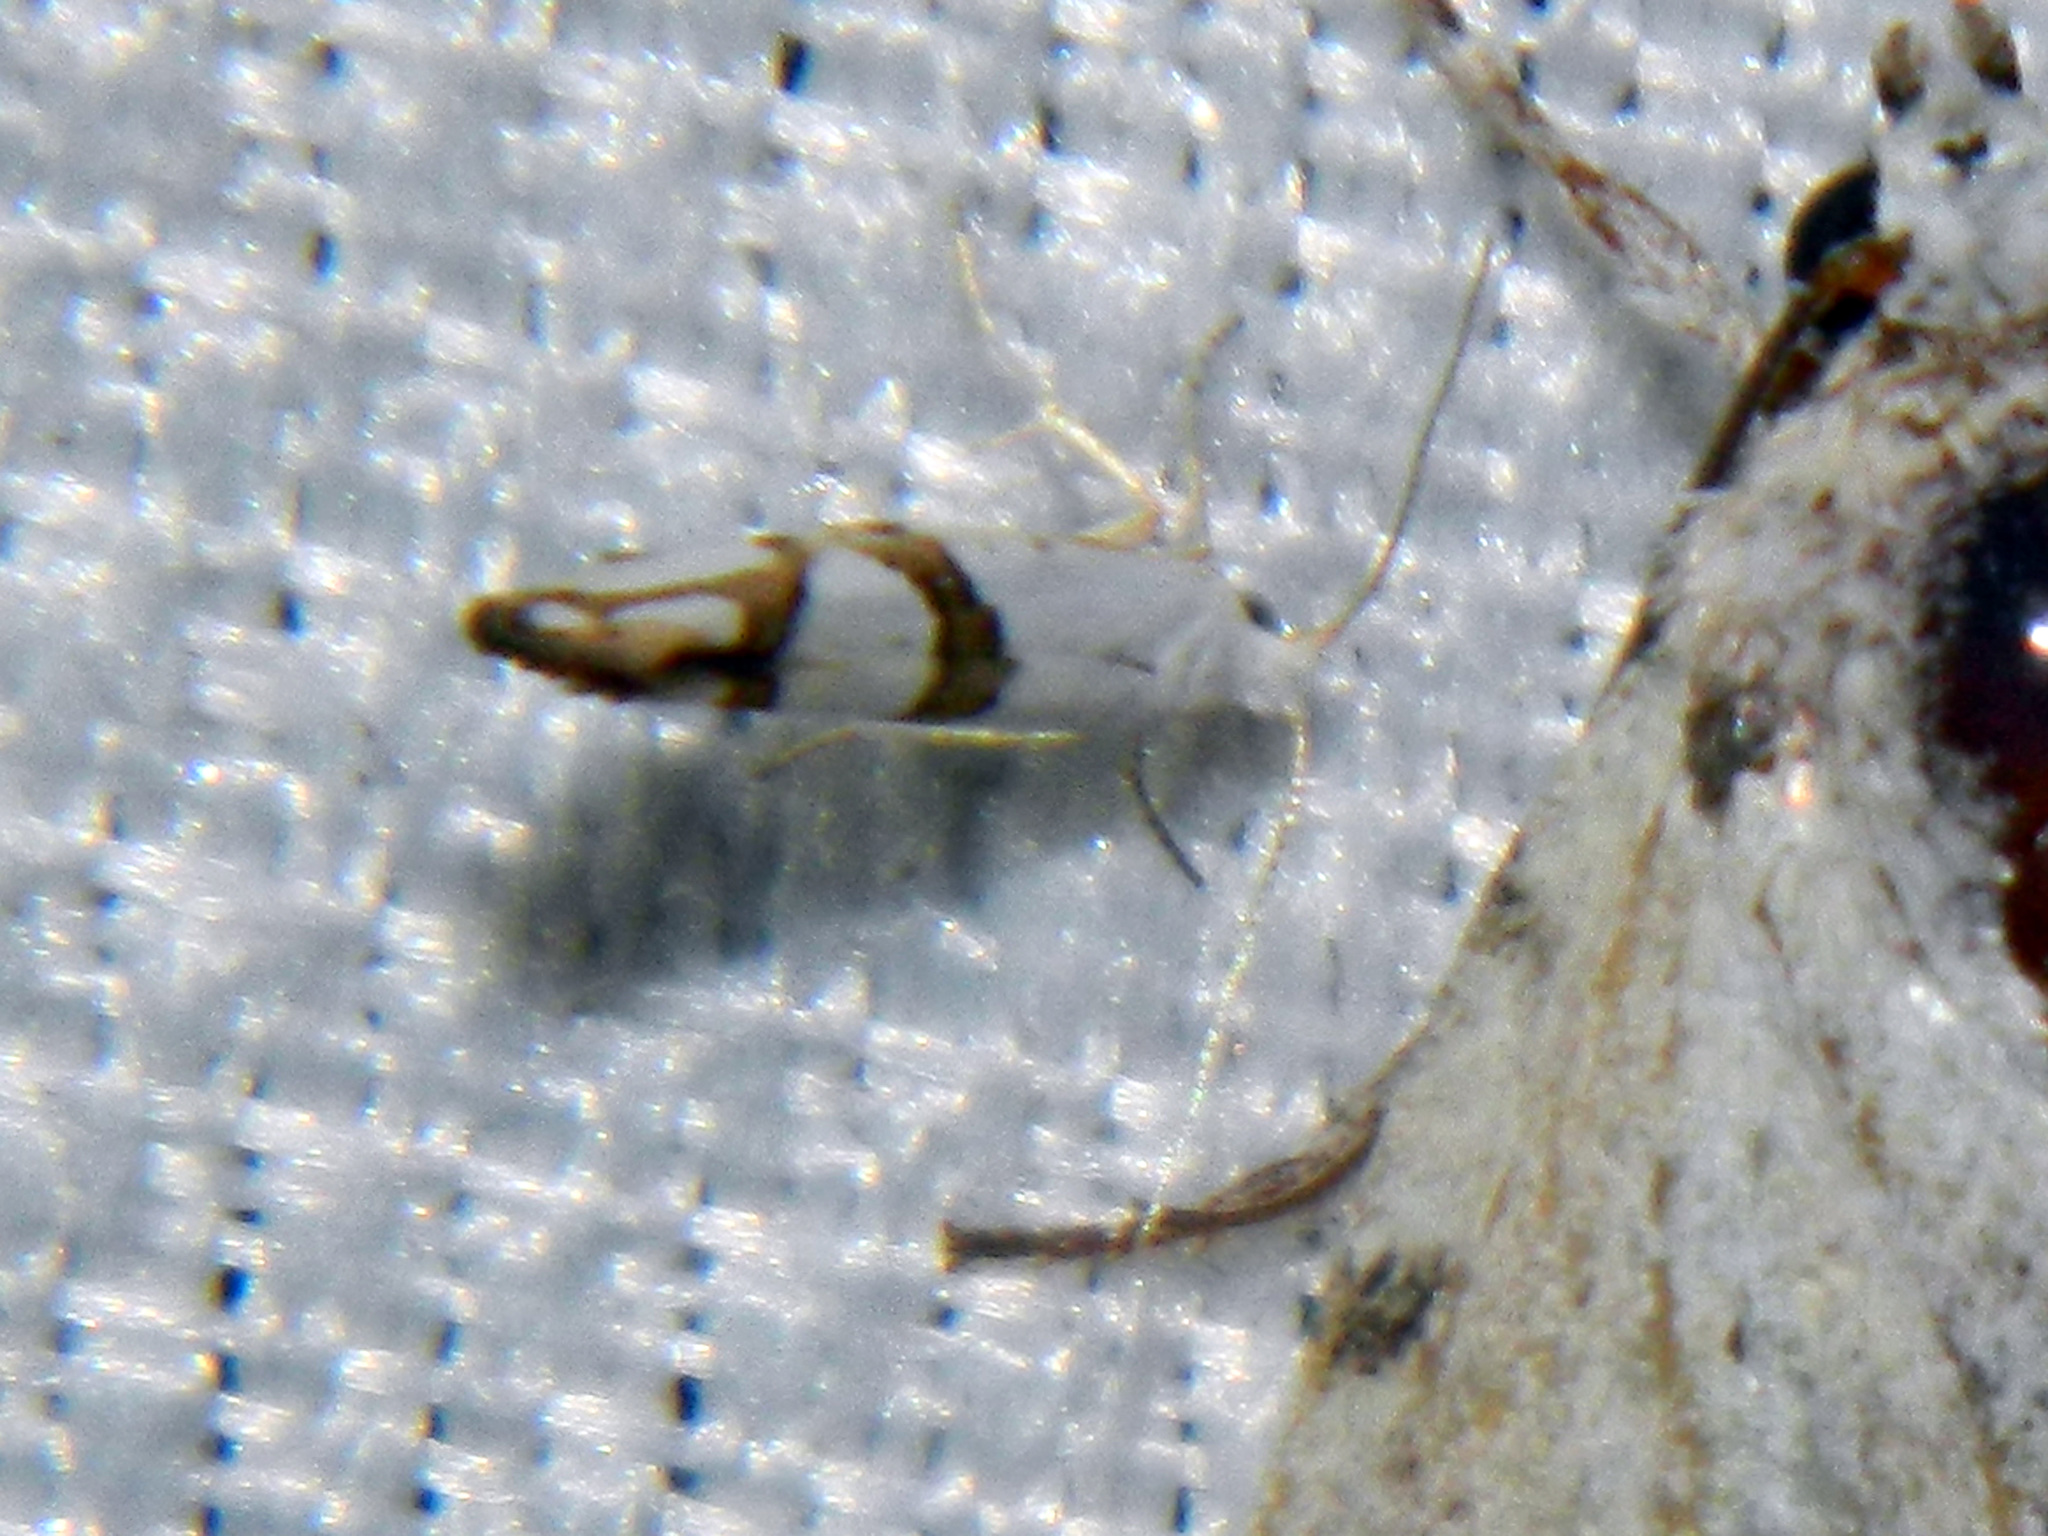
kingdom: Animalia
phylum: Arthropoda
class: Insecta
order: Lepidoptera
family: Argyresthiidae
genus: Argyresthia
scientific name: Argyresthia oreasella
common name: Cherry shoot borer moth
